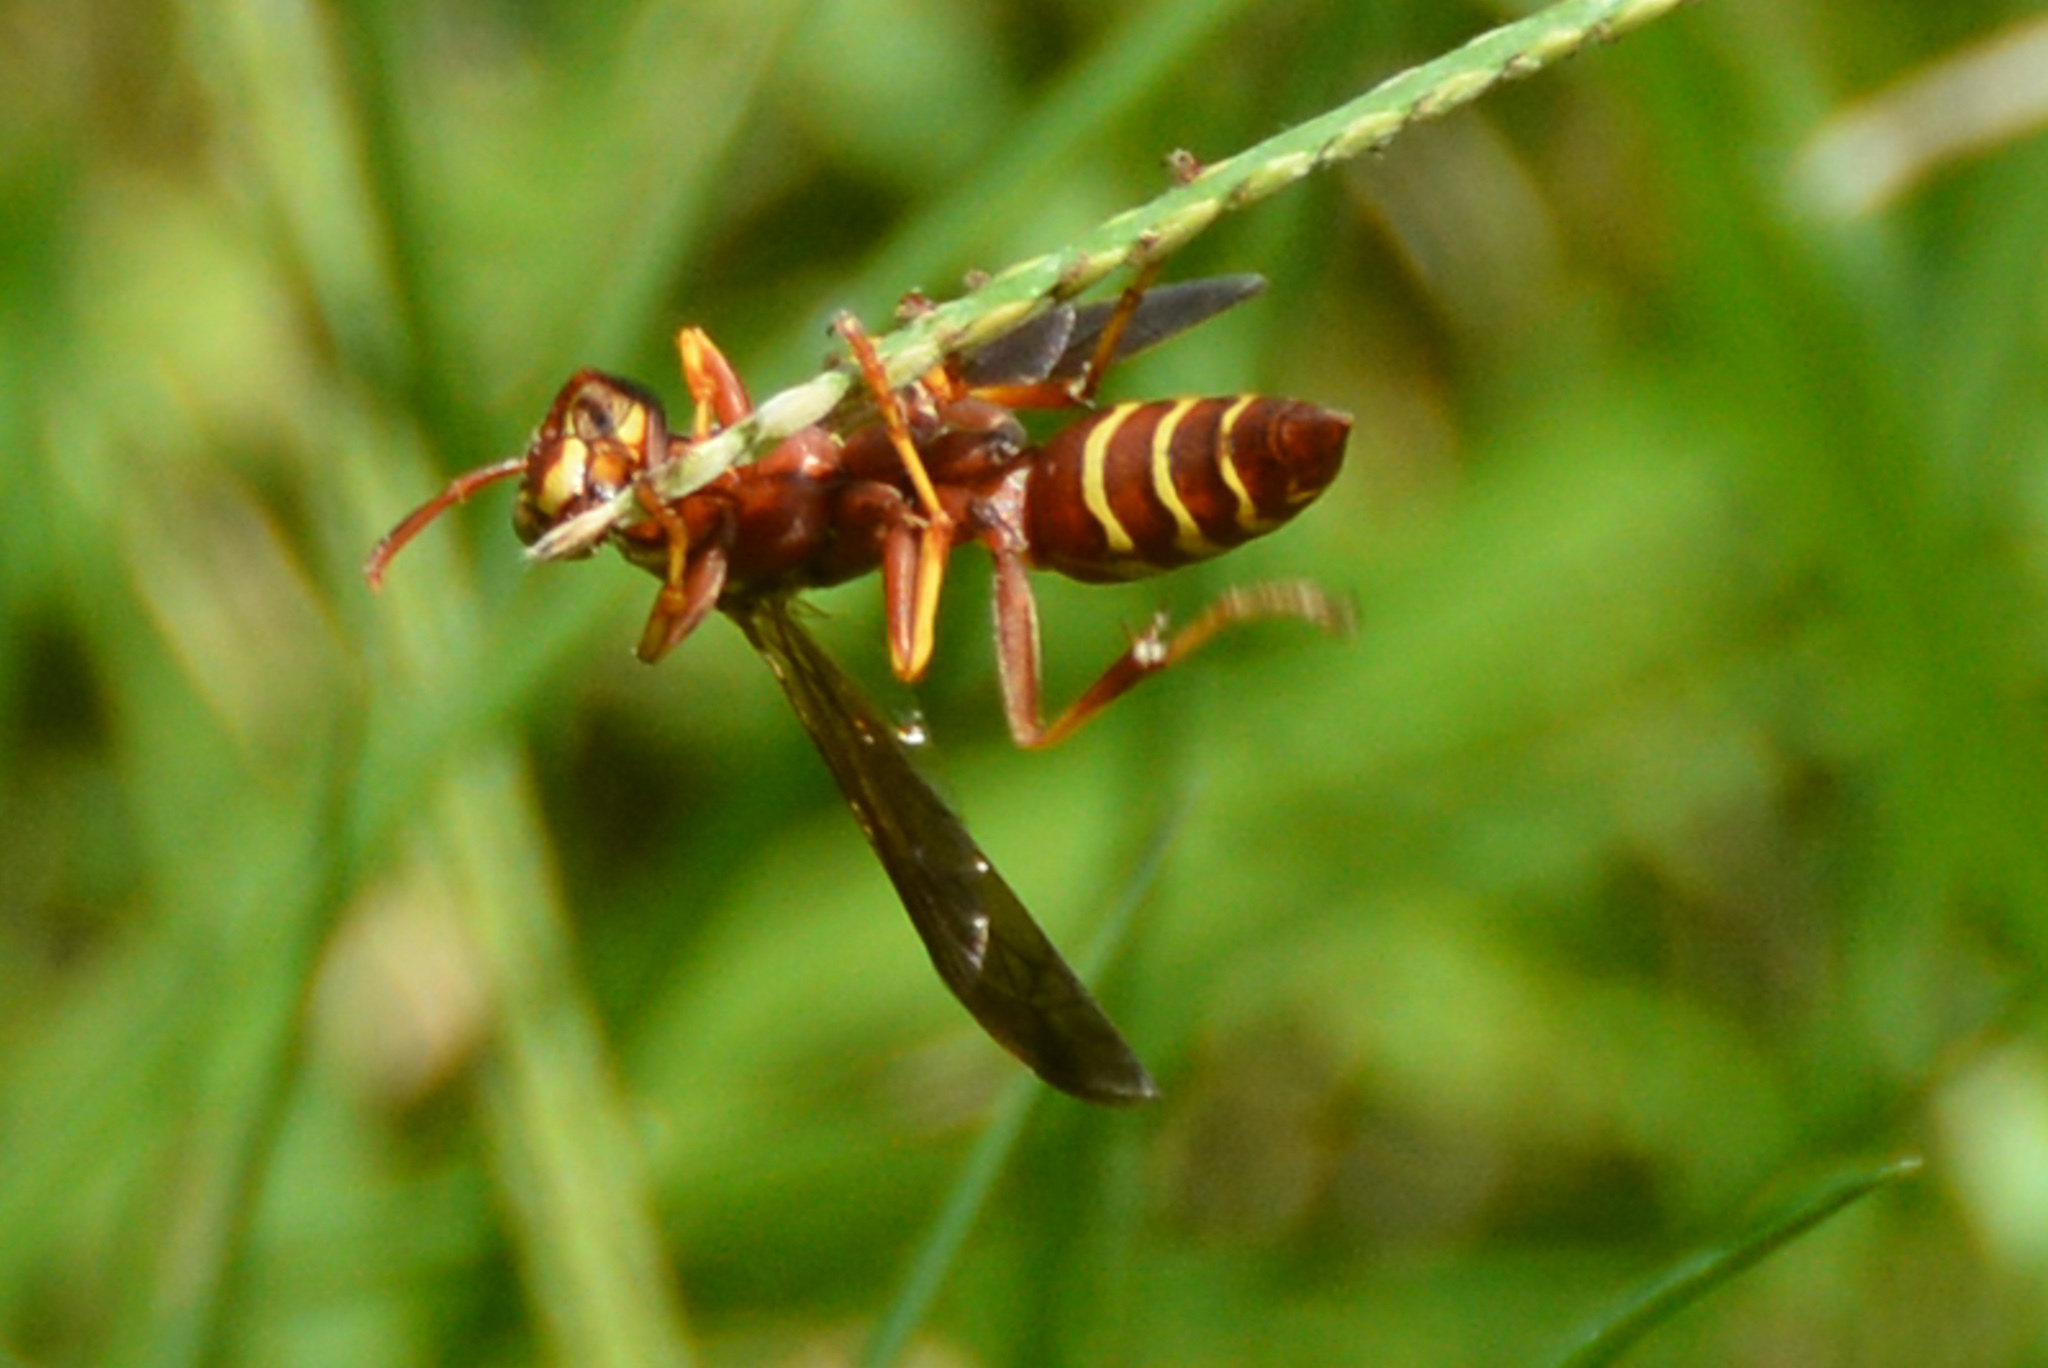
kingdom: Animalia
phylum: Arthropoda
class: Insecta
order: Hymenoptera
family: Eumenidae
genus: Polistes
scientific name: Polistes bellicosus
